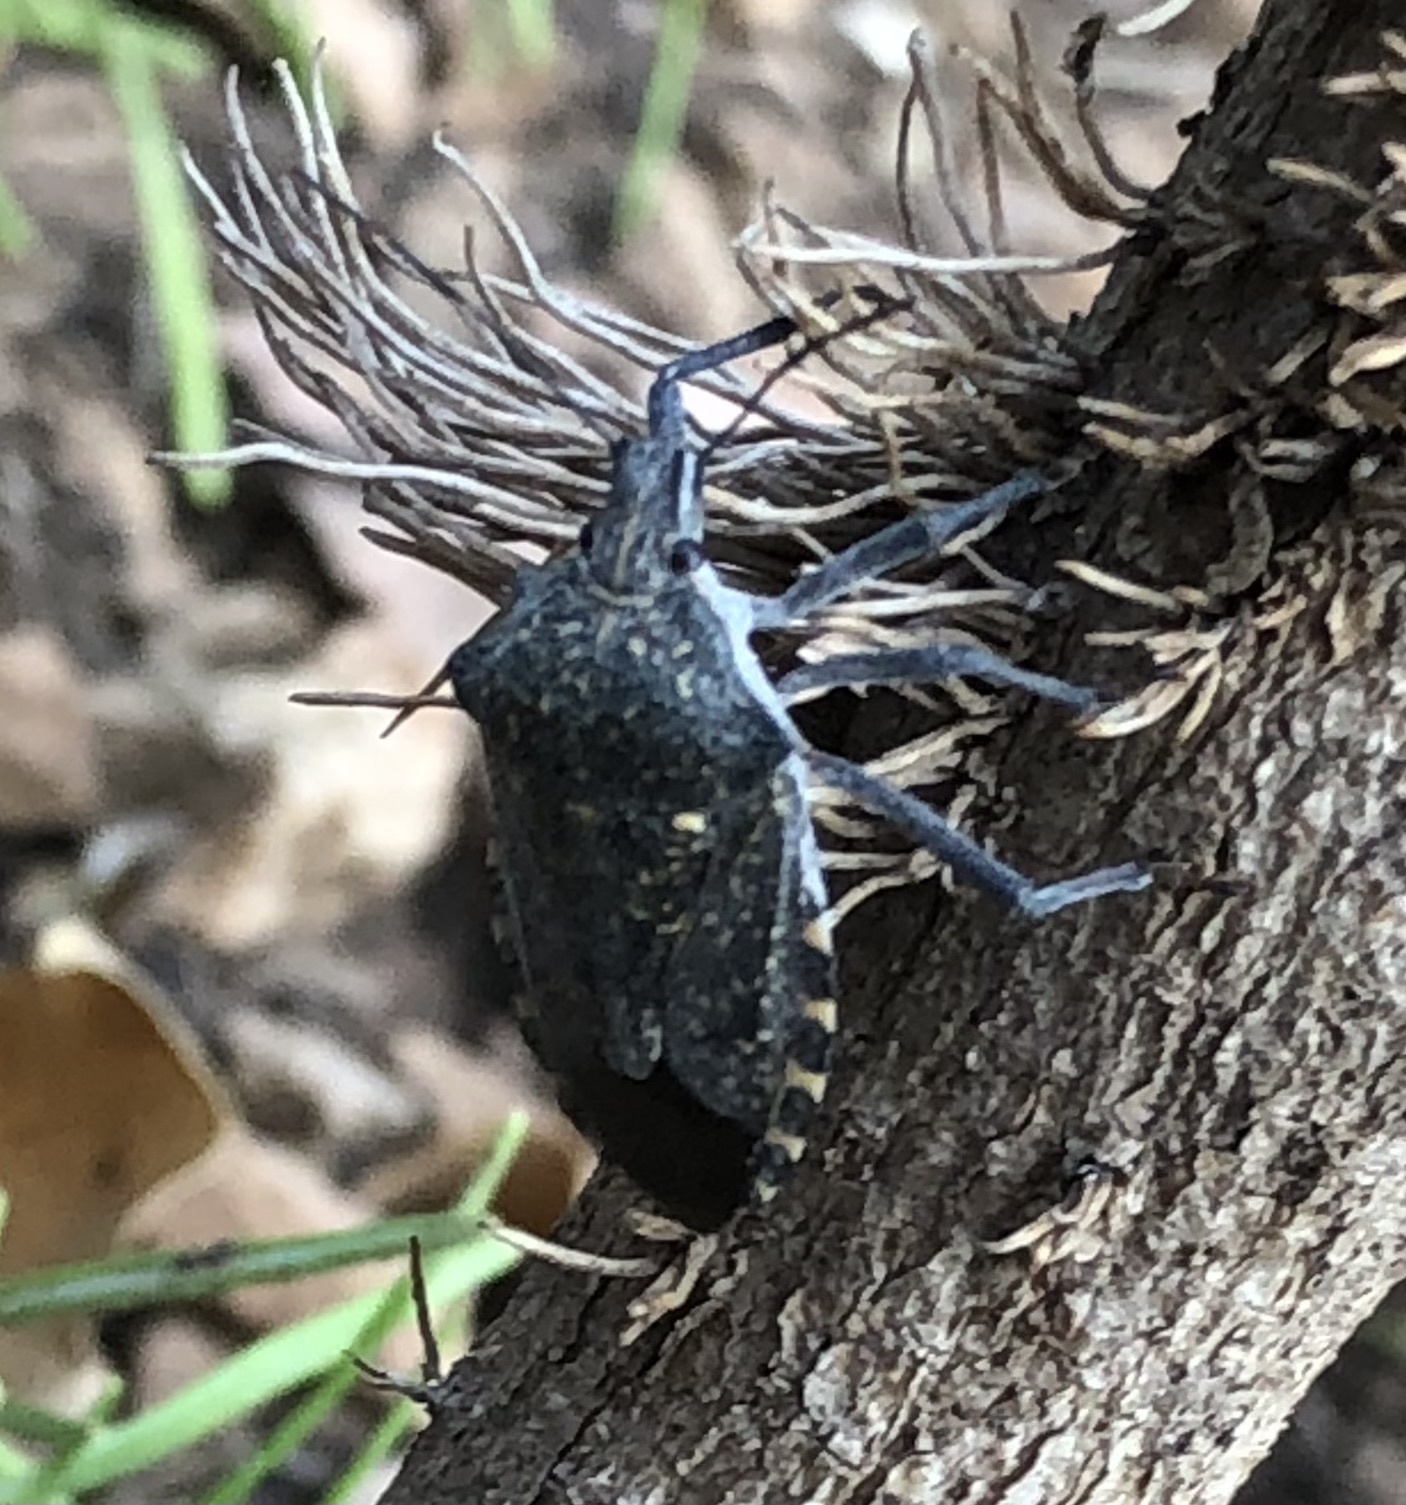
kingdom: Animalia
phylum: Arthropoda
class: Insecta
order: Hemiptera
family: Pentatomidae
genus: Apodiphus
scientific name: Apodiphus amygdali
